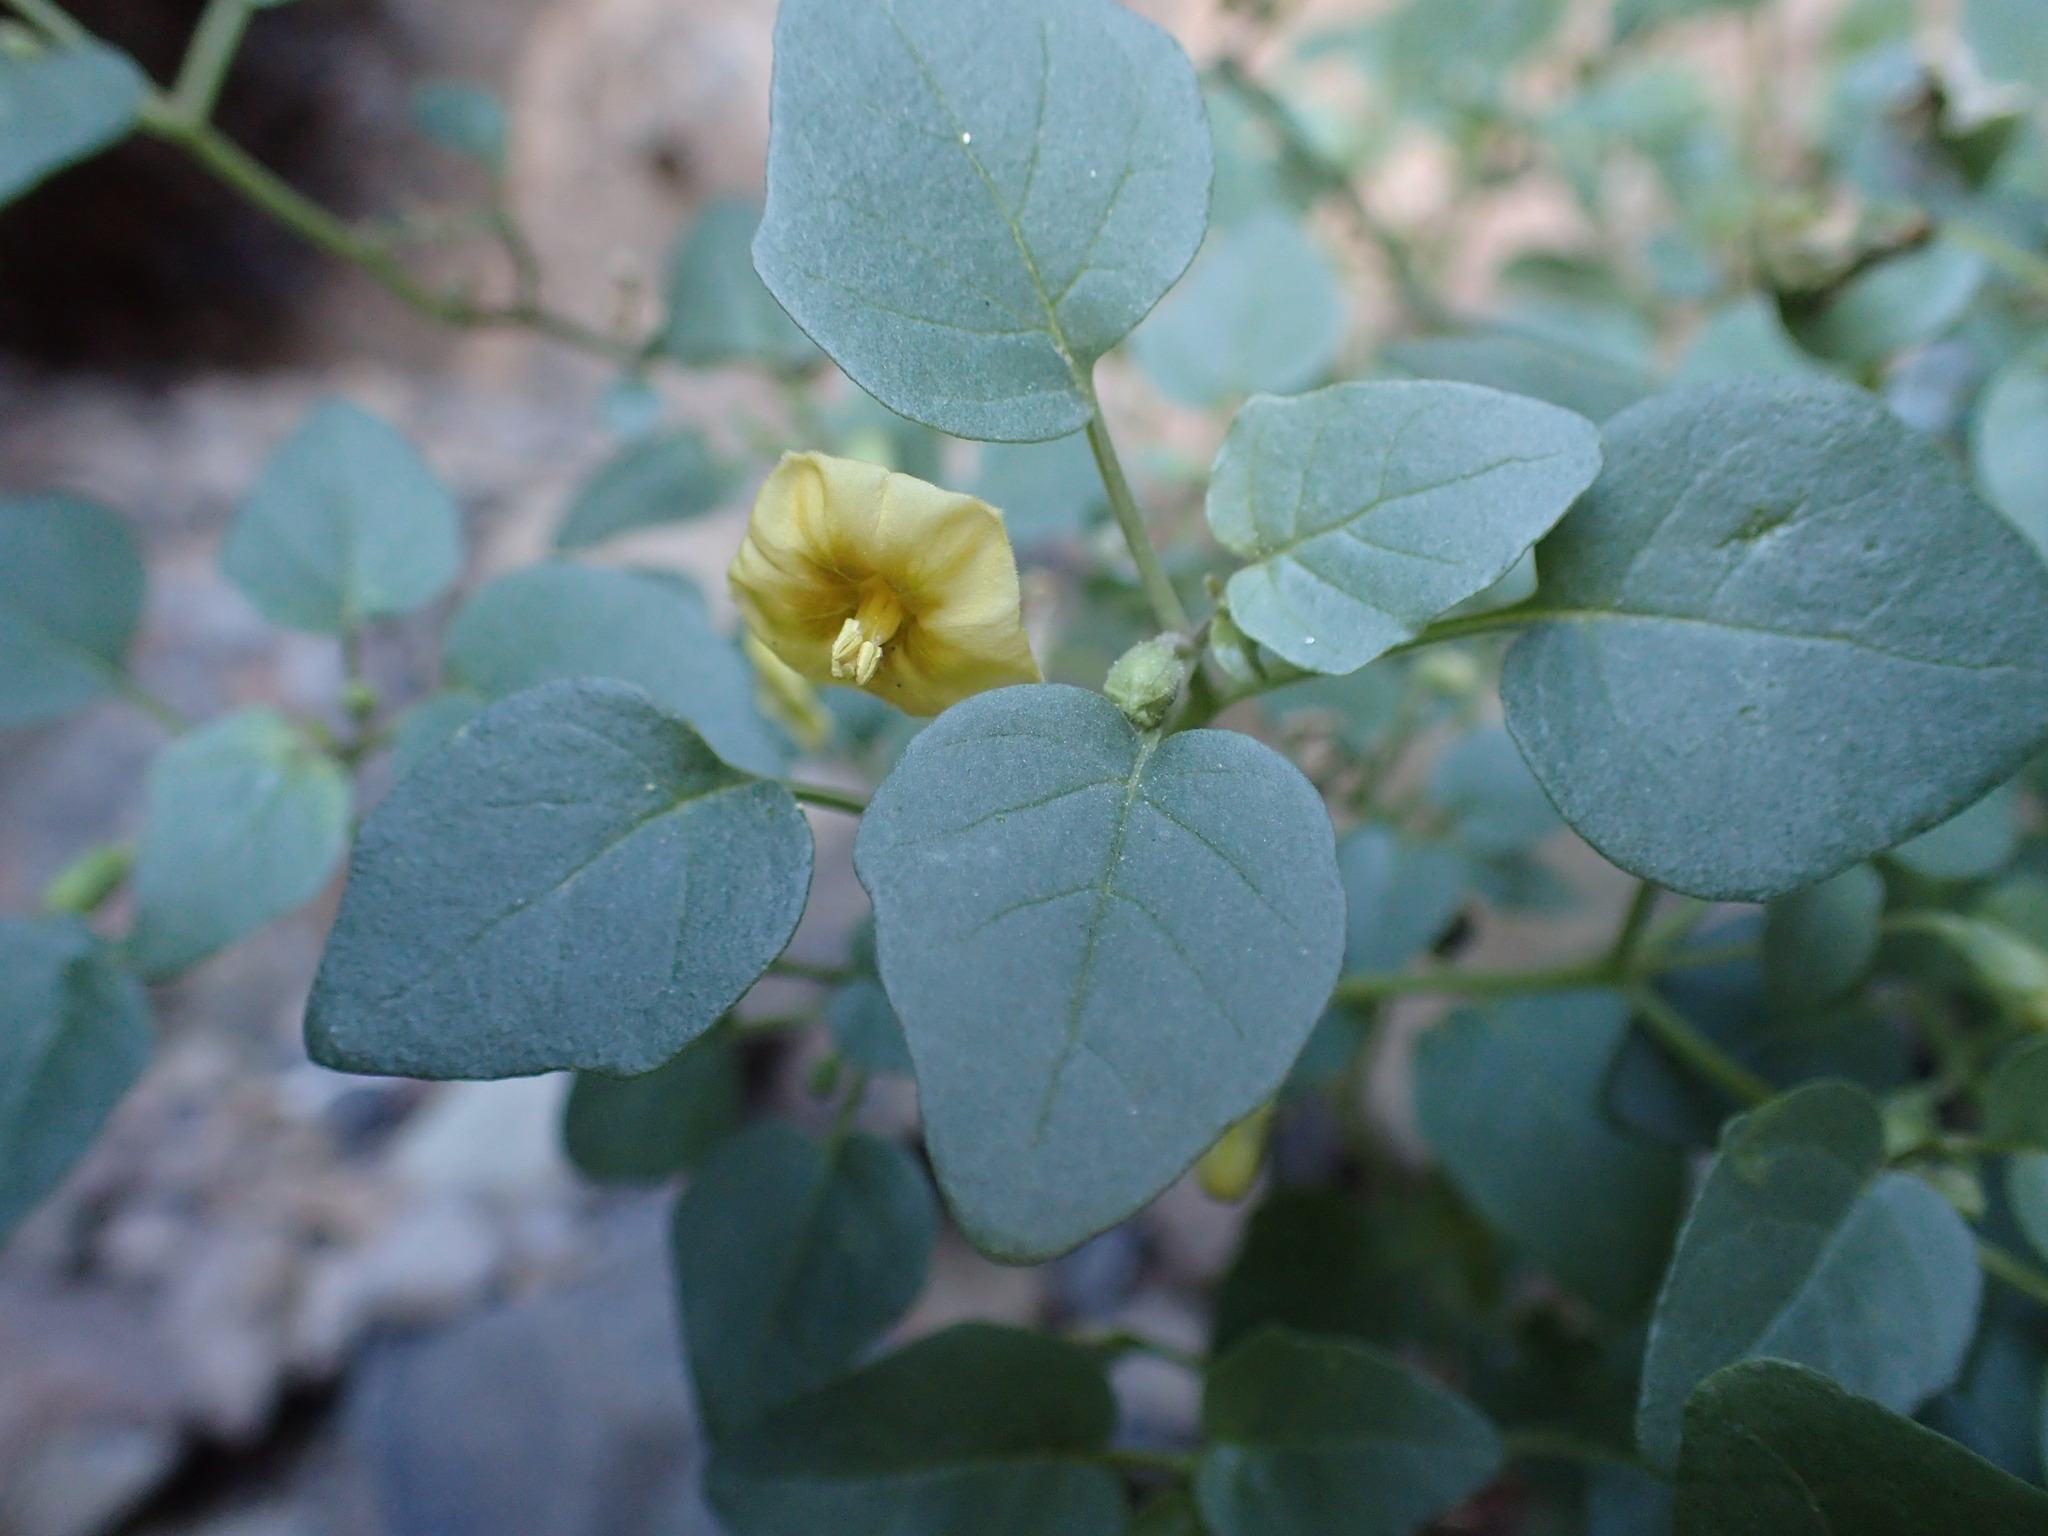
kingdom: Plantae
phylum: Tracheophyta
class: Magnoliopsida
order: Solanales
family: Solanaceae
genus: Physalis
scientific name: Physalis crassifolia
